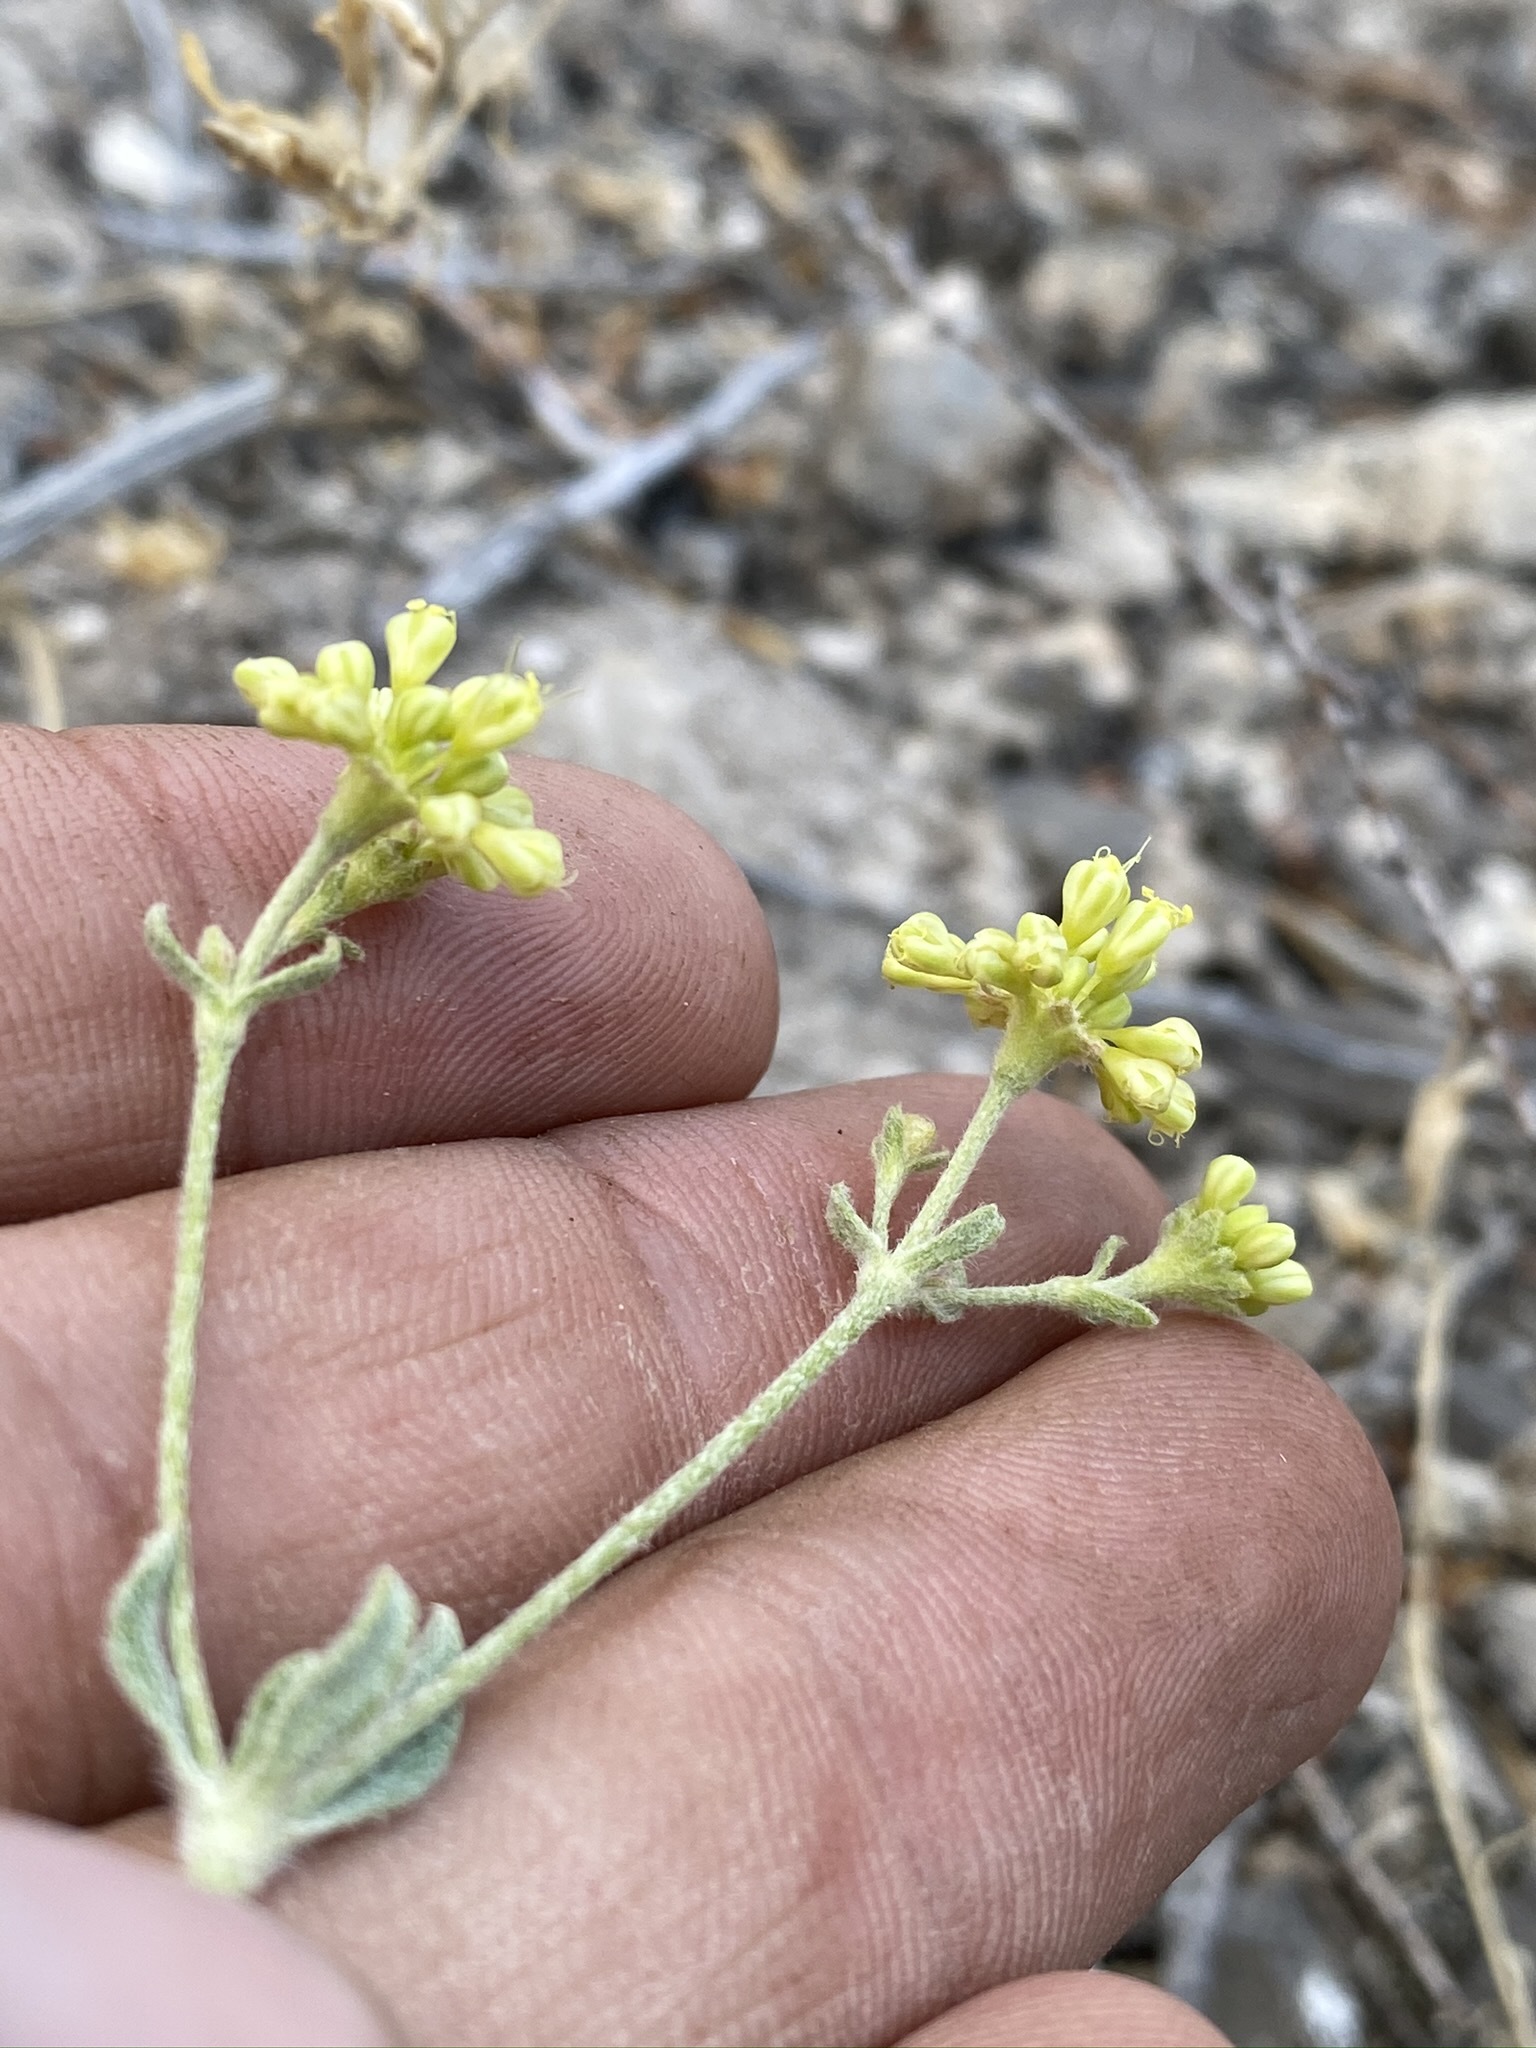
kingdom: Plantae
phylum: Tracheophyta
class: Magnoliopsida
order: Caryophyllales
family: Polygonaceae
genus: Eriogonum
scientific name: Eriogonum umbellatum
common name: Sulfur-buckwheat
